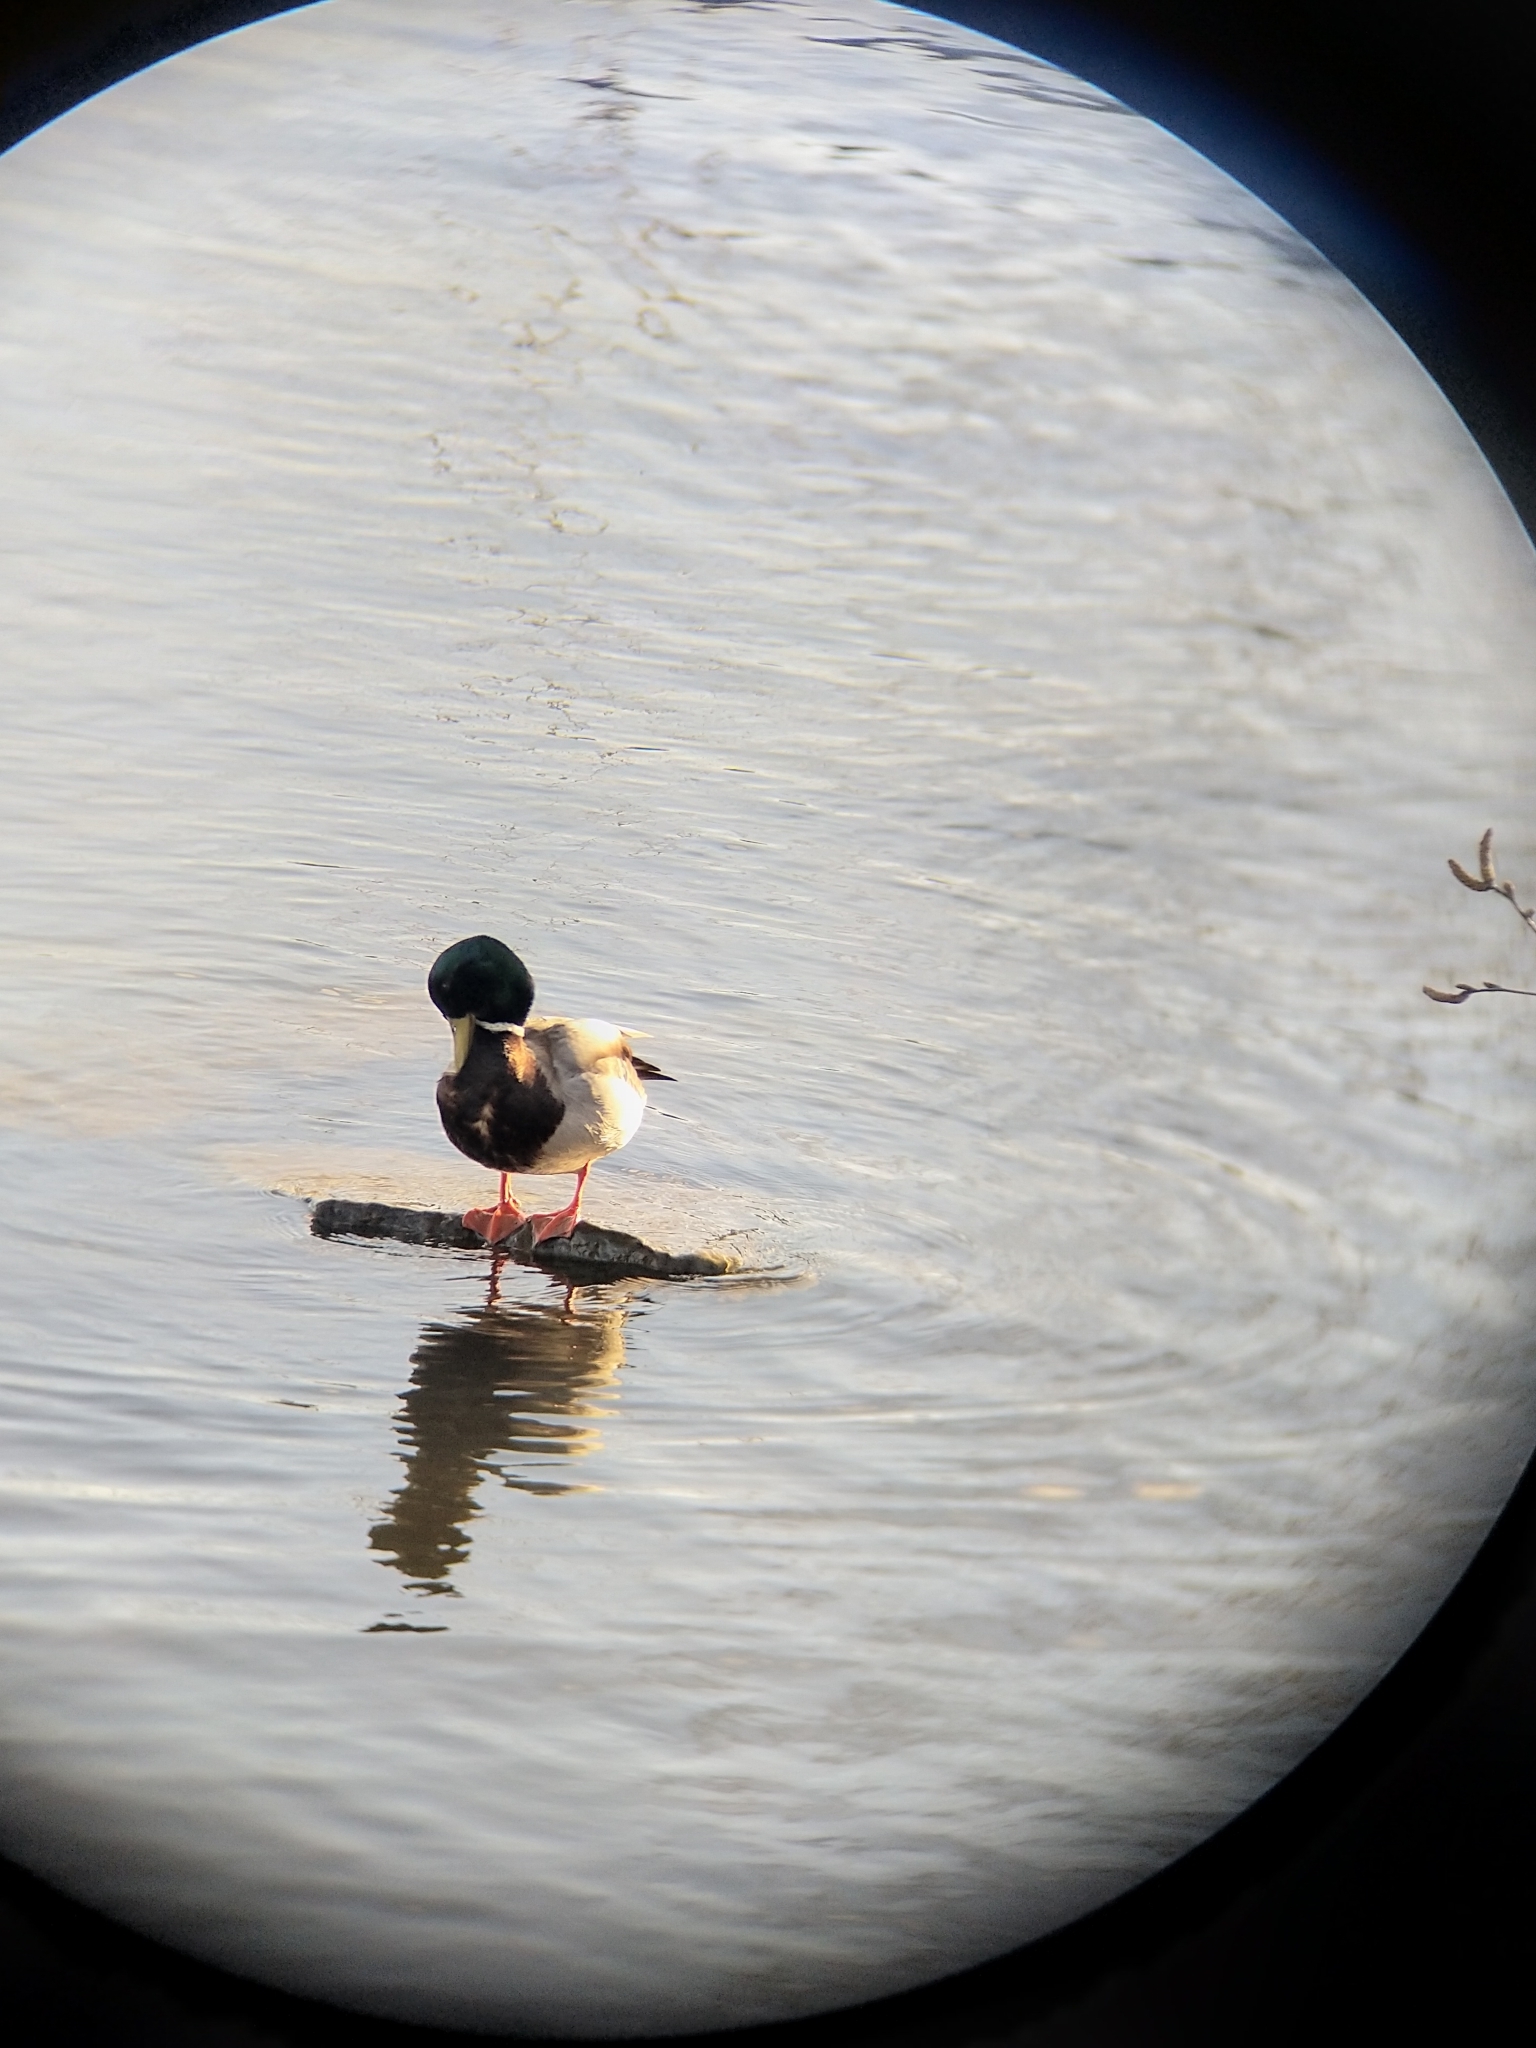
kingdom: Animalia
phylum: Chordata
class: Aves
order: Anseriformes
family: Anatidae
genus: Anas
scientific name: Anas platyrhynchos
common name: Mallard
